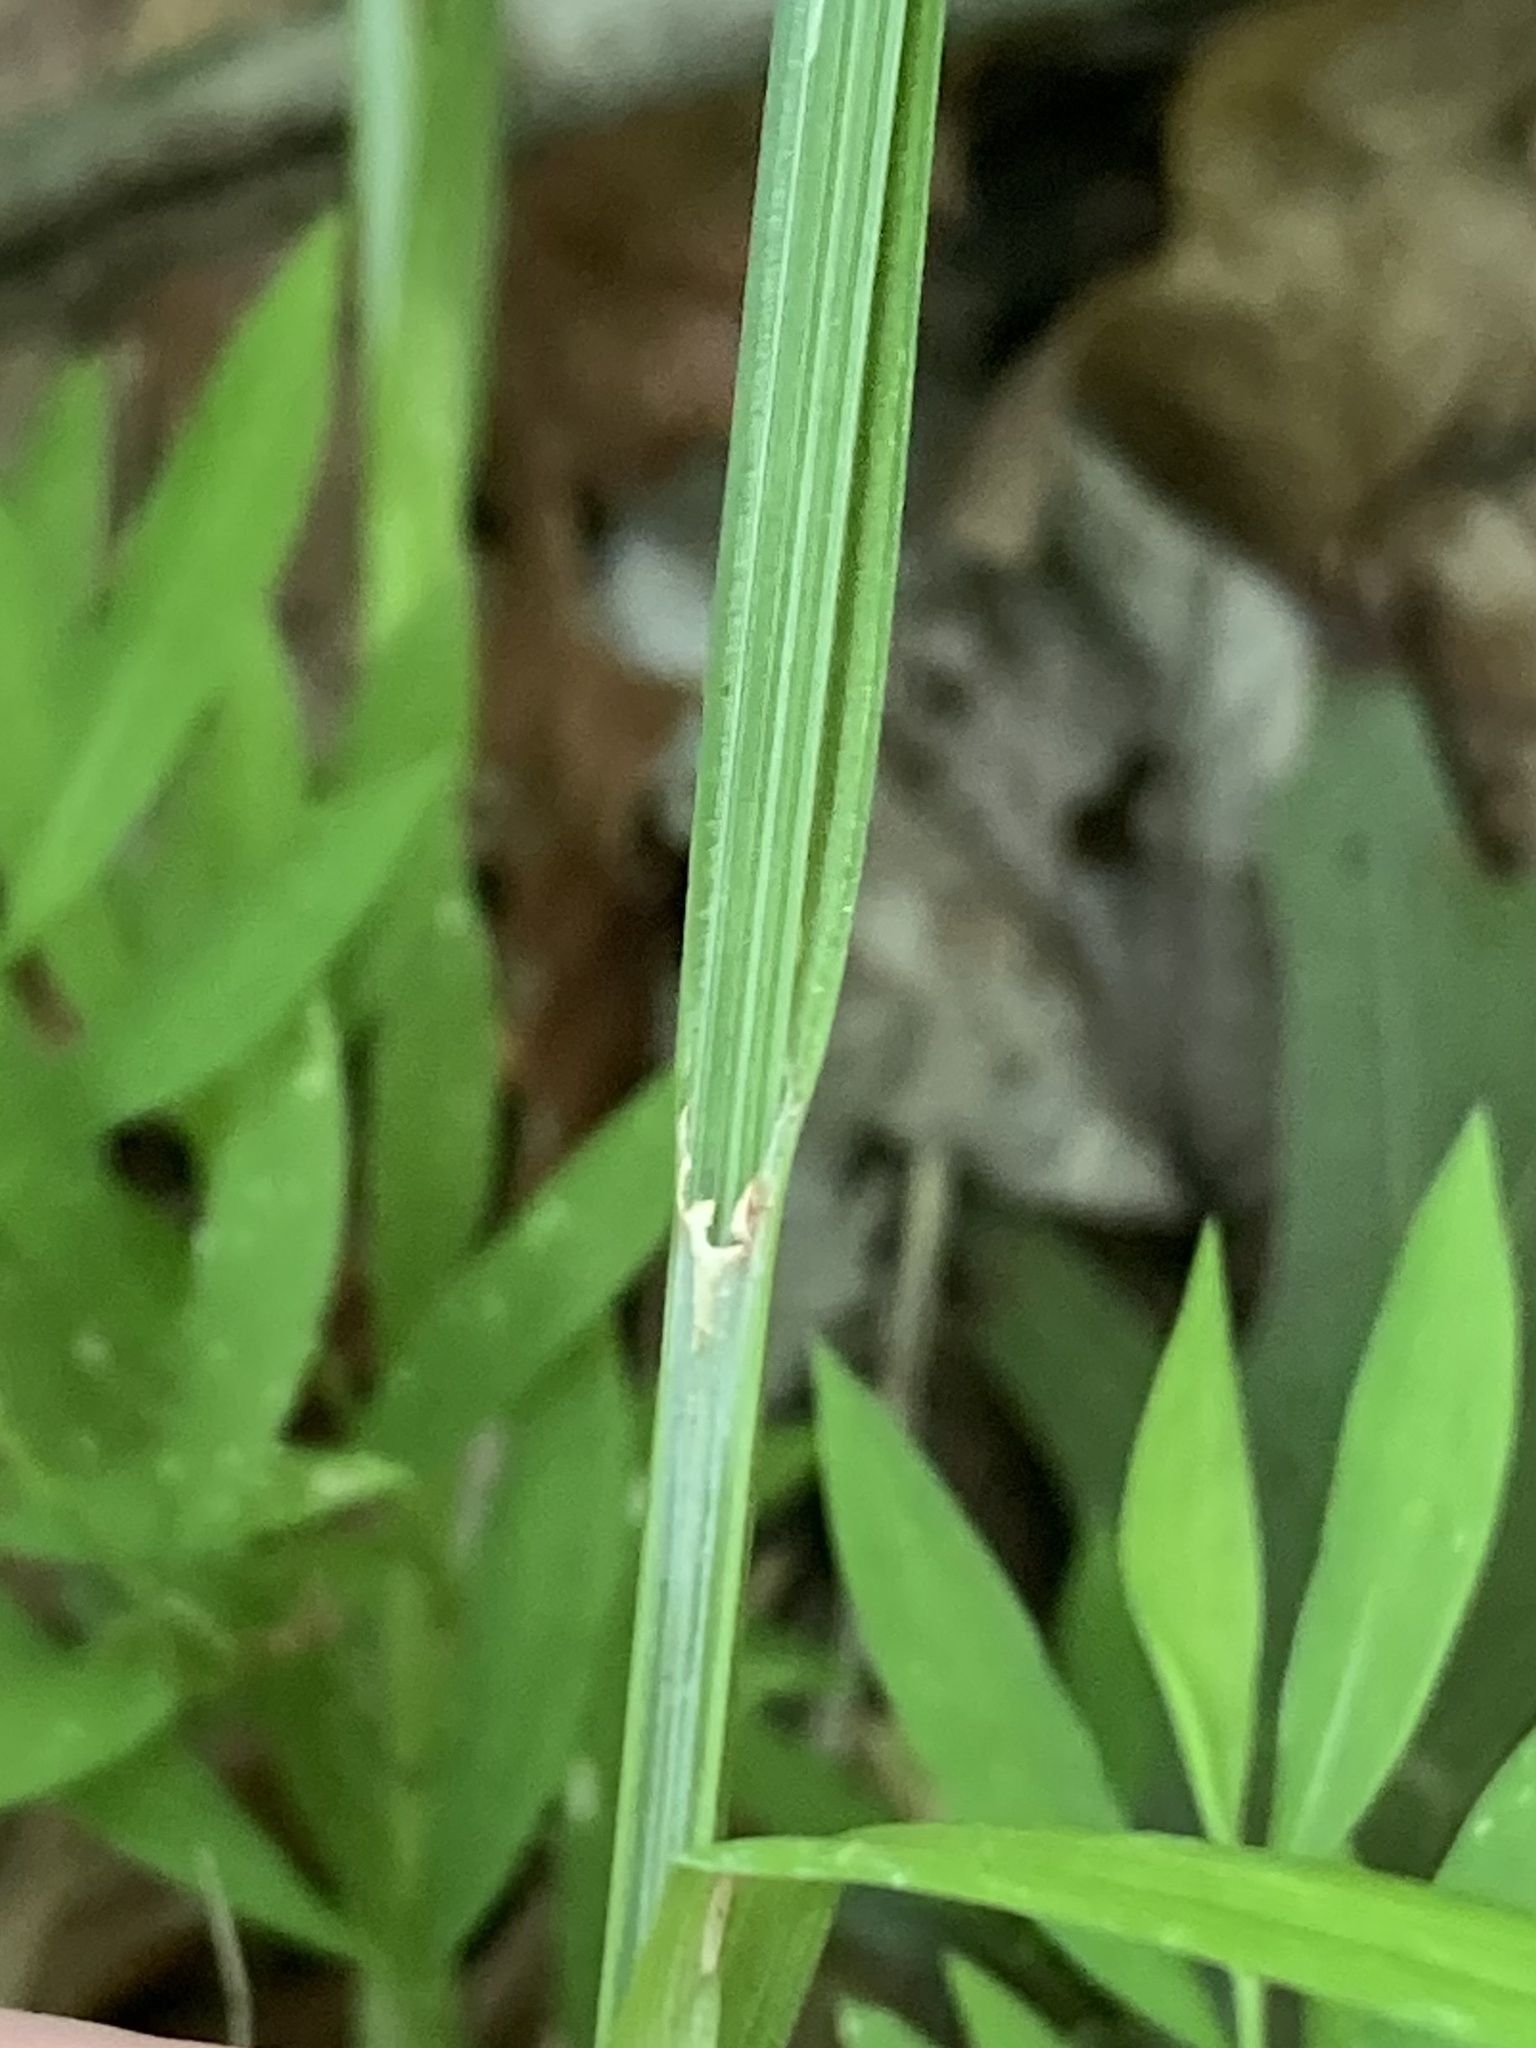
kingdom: Plantae
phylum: Tracheophyta
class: Liliopsida
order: Poales
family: Cyperaceae
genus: Carex
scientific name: Carex laevivaginata
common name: Smooth-sheathed fox sedge
